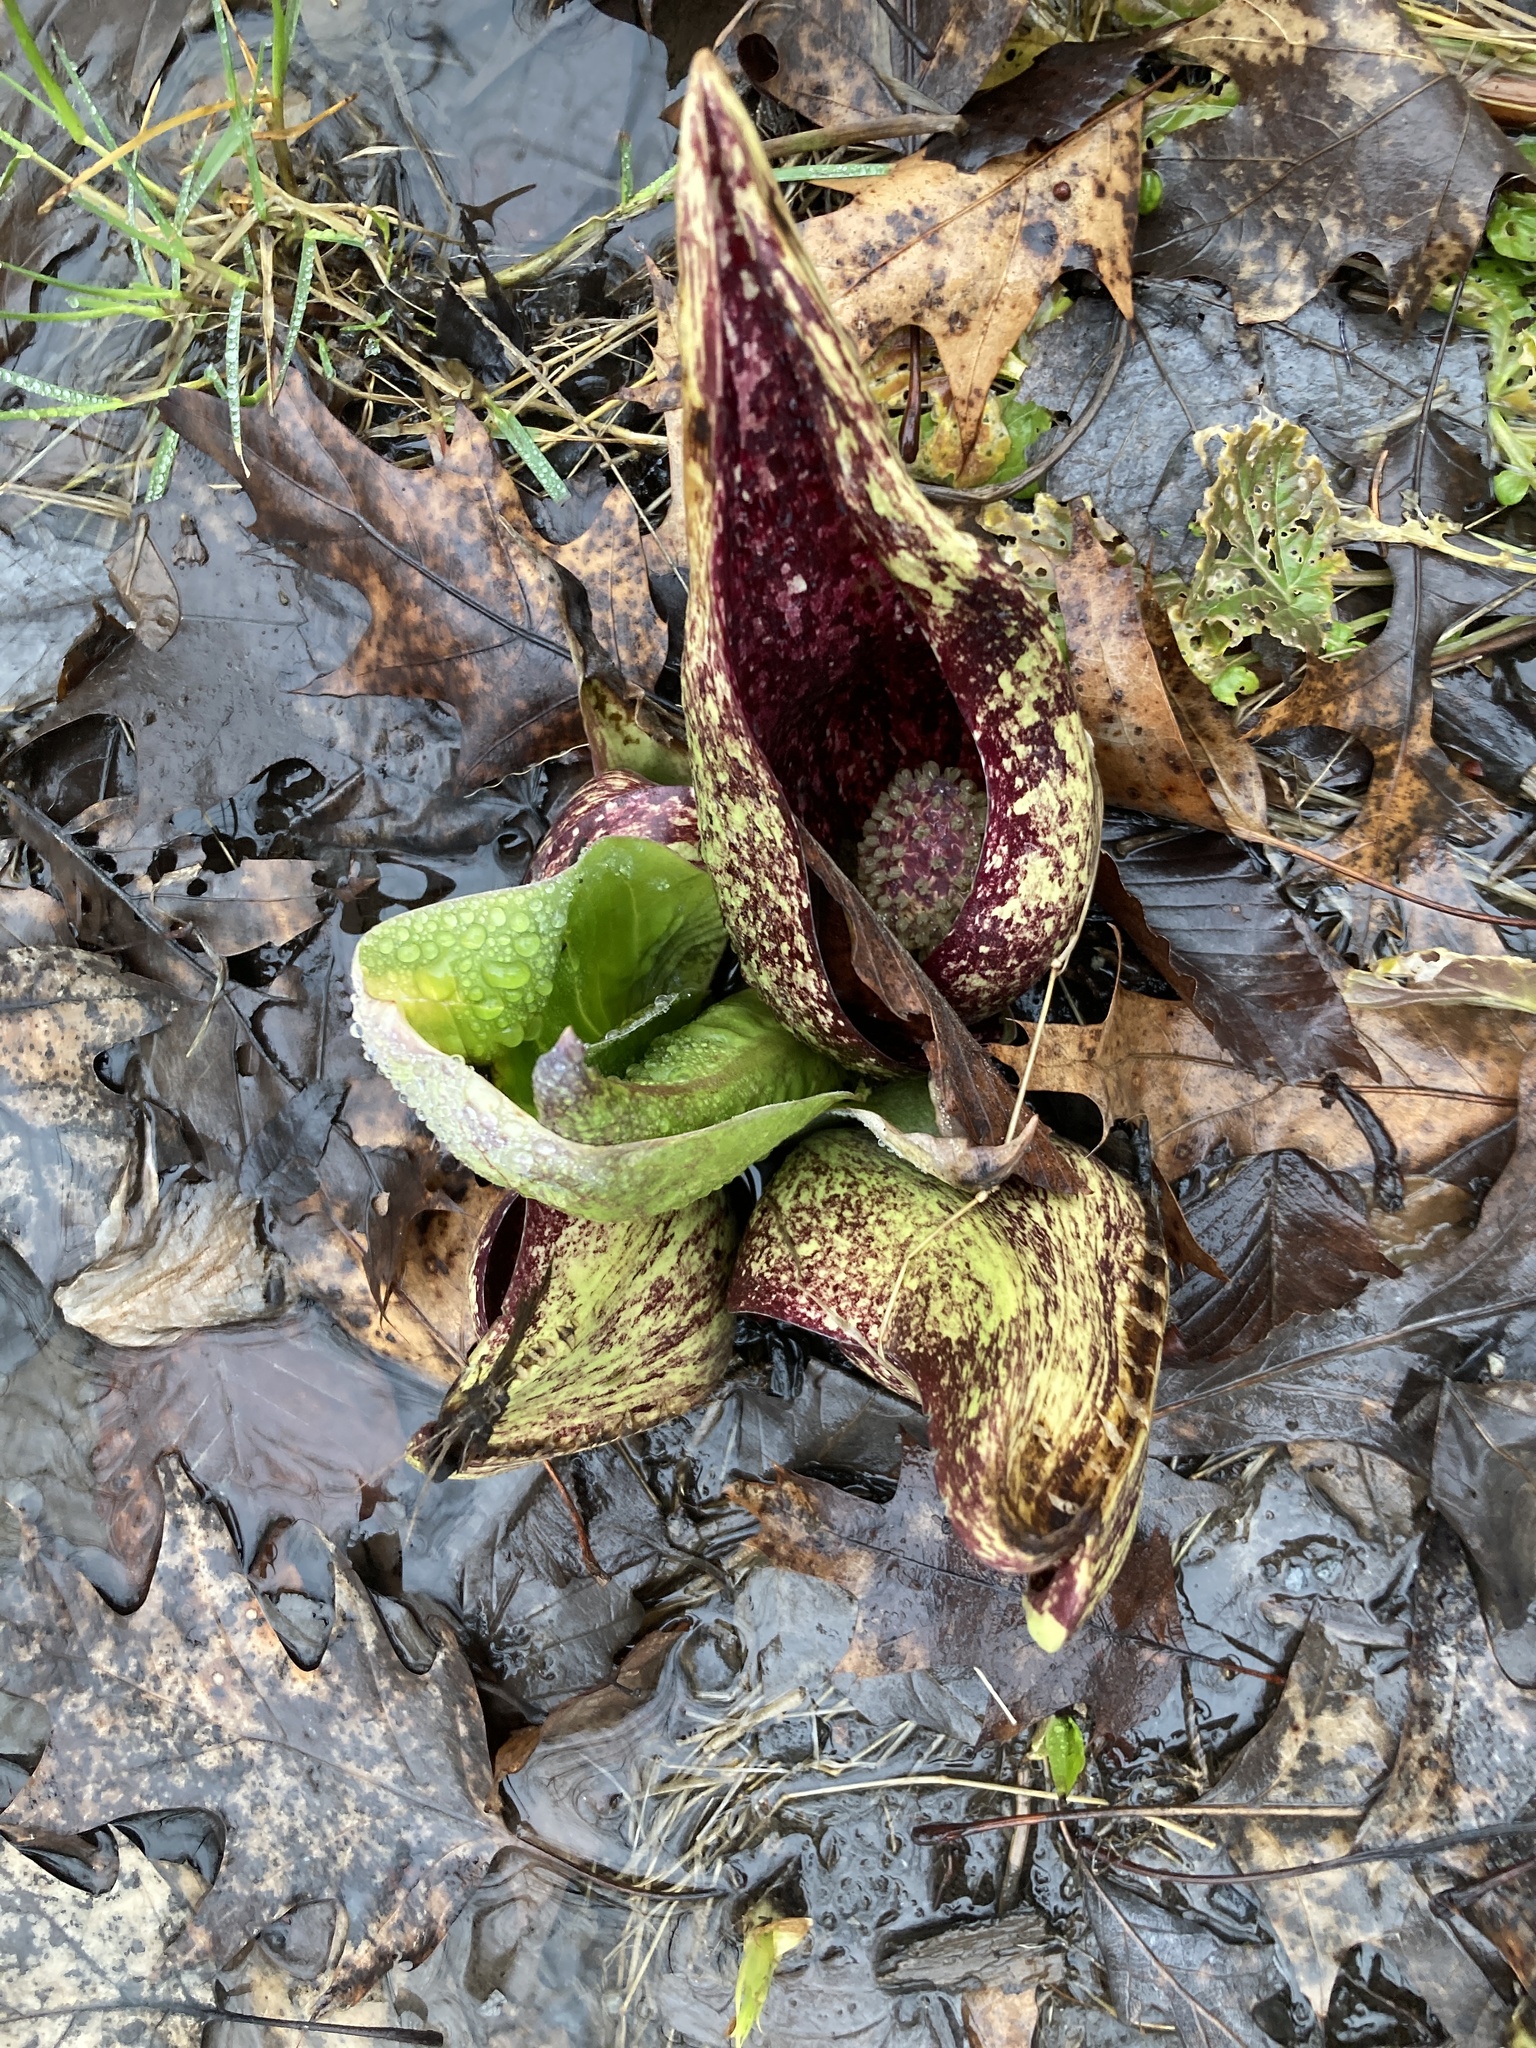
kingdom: Plantae
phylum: Tracheophyta
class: Liliopsida
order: Alismatales
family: Araceae
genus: Symplocarpus
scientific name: Symplocarpus foetidus
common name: Eastern skunk cabbage
